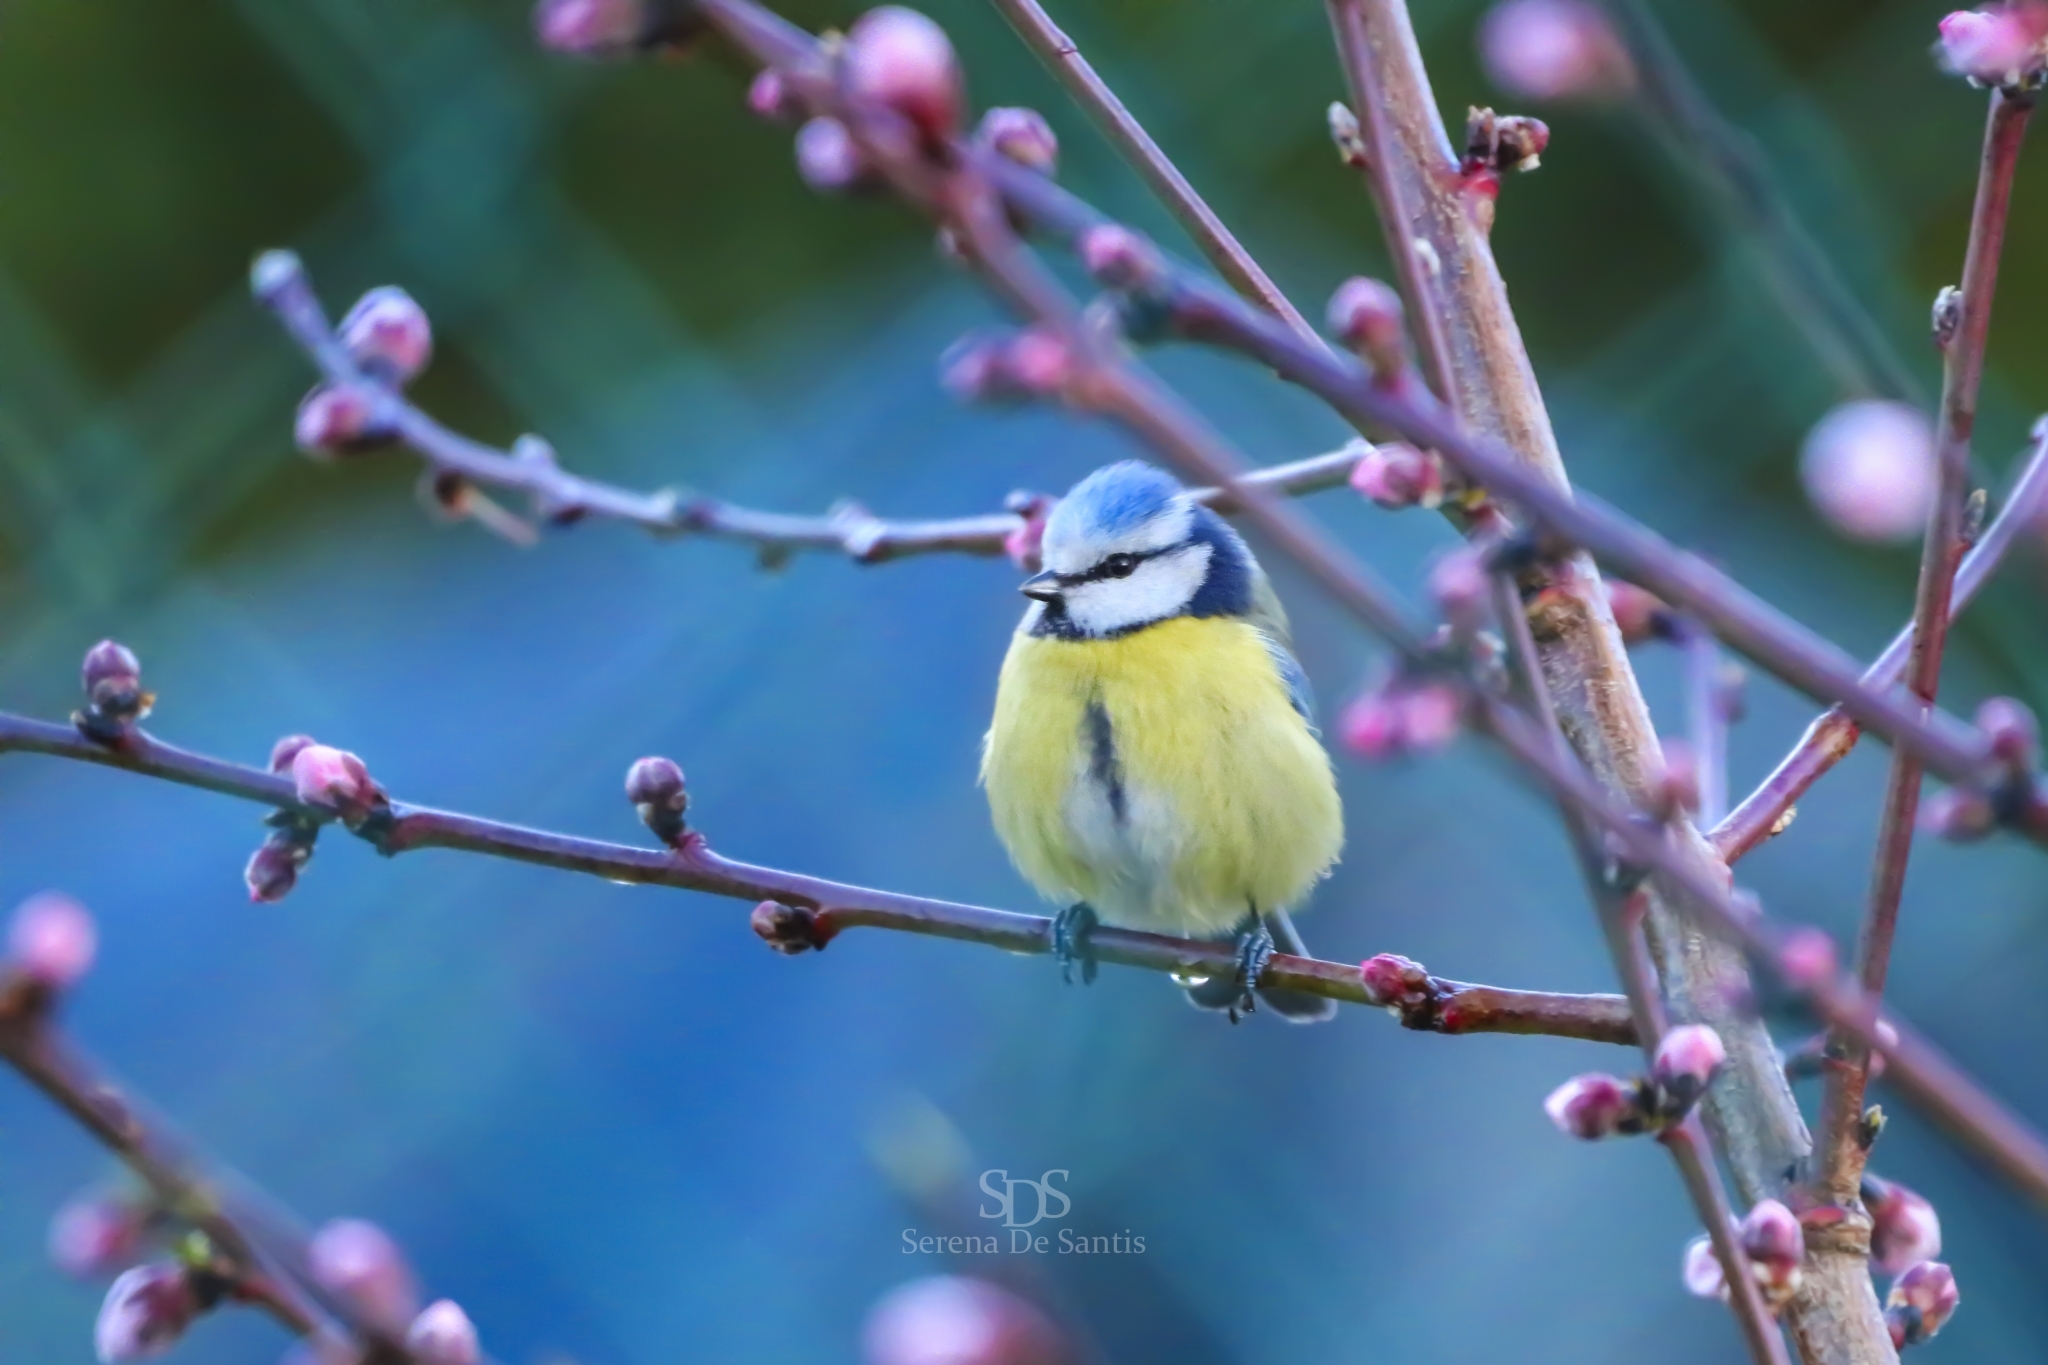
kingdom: Animalia
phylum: Chordata
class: Aves
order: Passeriformes
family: Paridae
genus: Cyanistes
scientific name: Cyanistes caeruleus
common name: Eurasian blue tit
